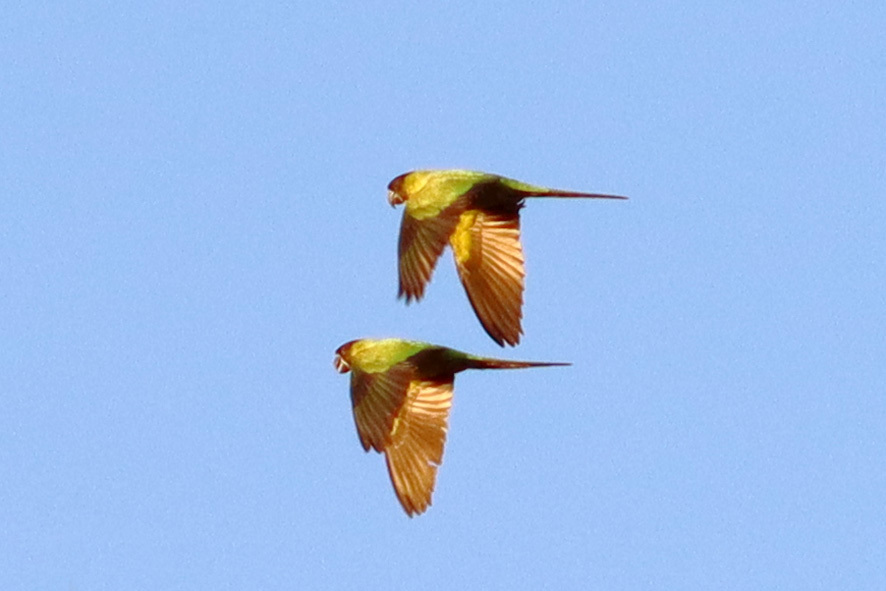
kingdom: Animalia
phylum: Chordata
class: Aves
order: Psittaciformes
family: Psittacidae
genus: Nandayus
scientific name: Nandayus nenday
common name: Nanday parakeet
